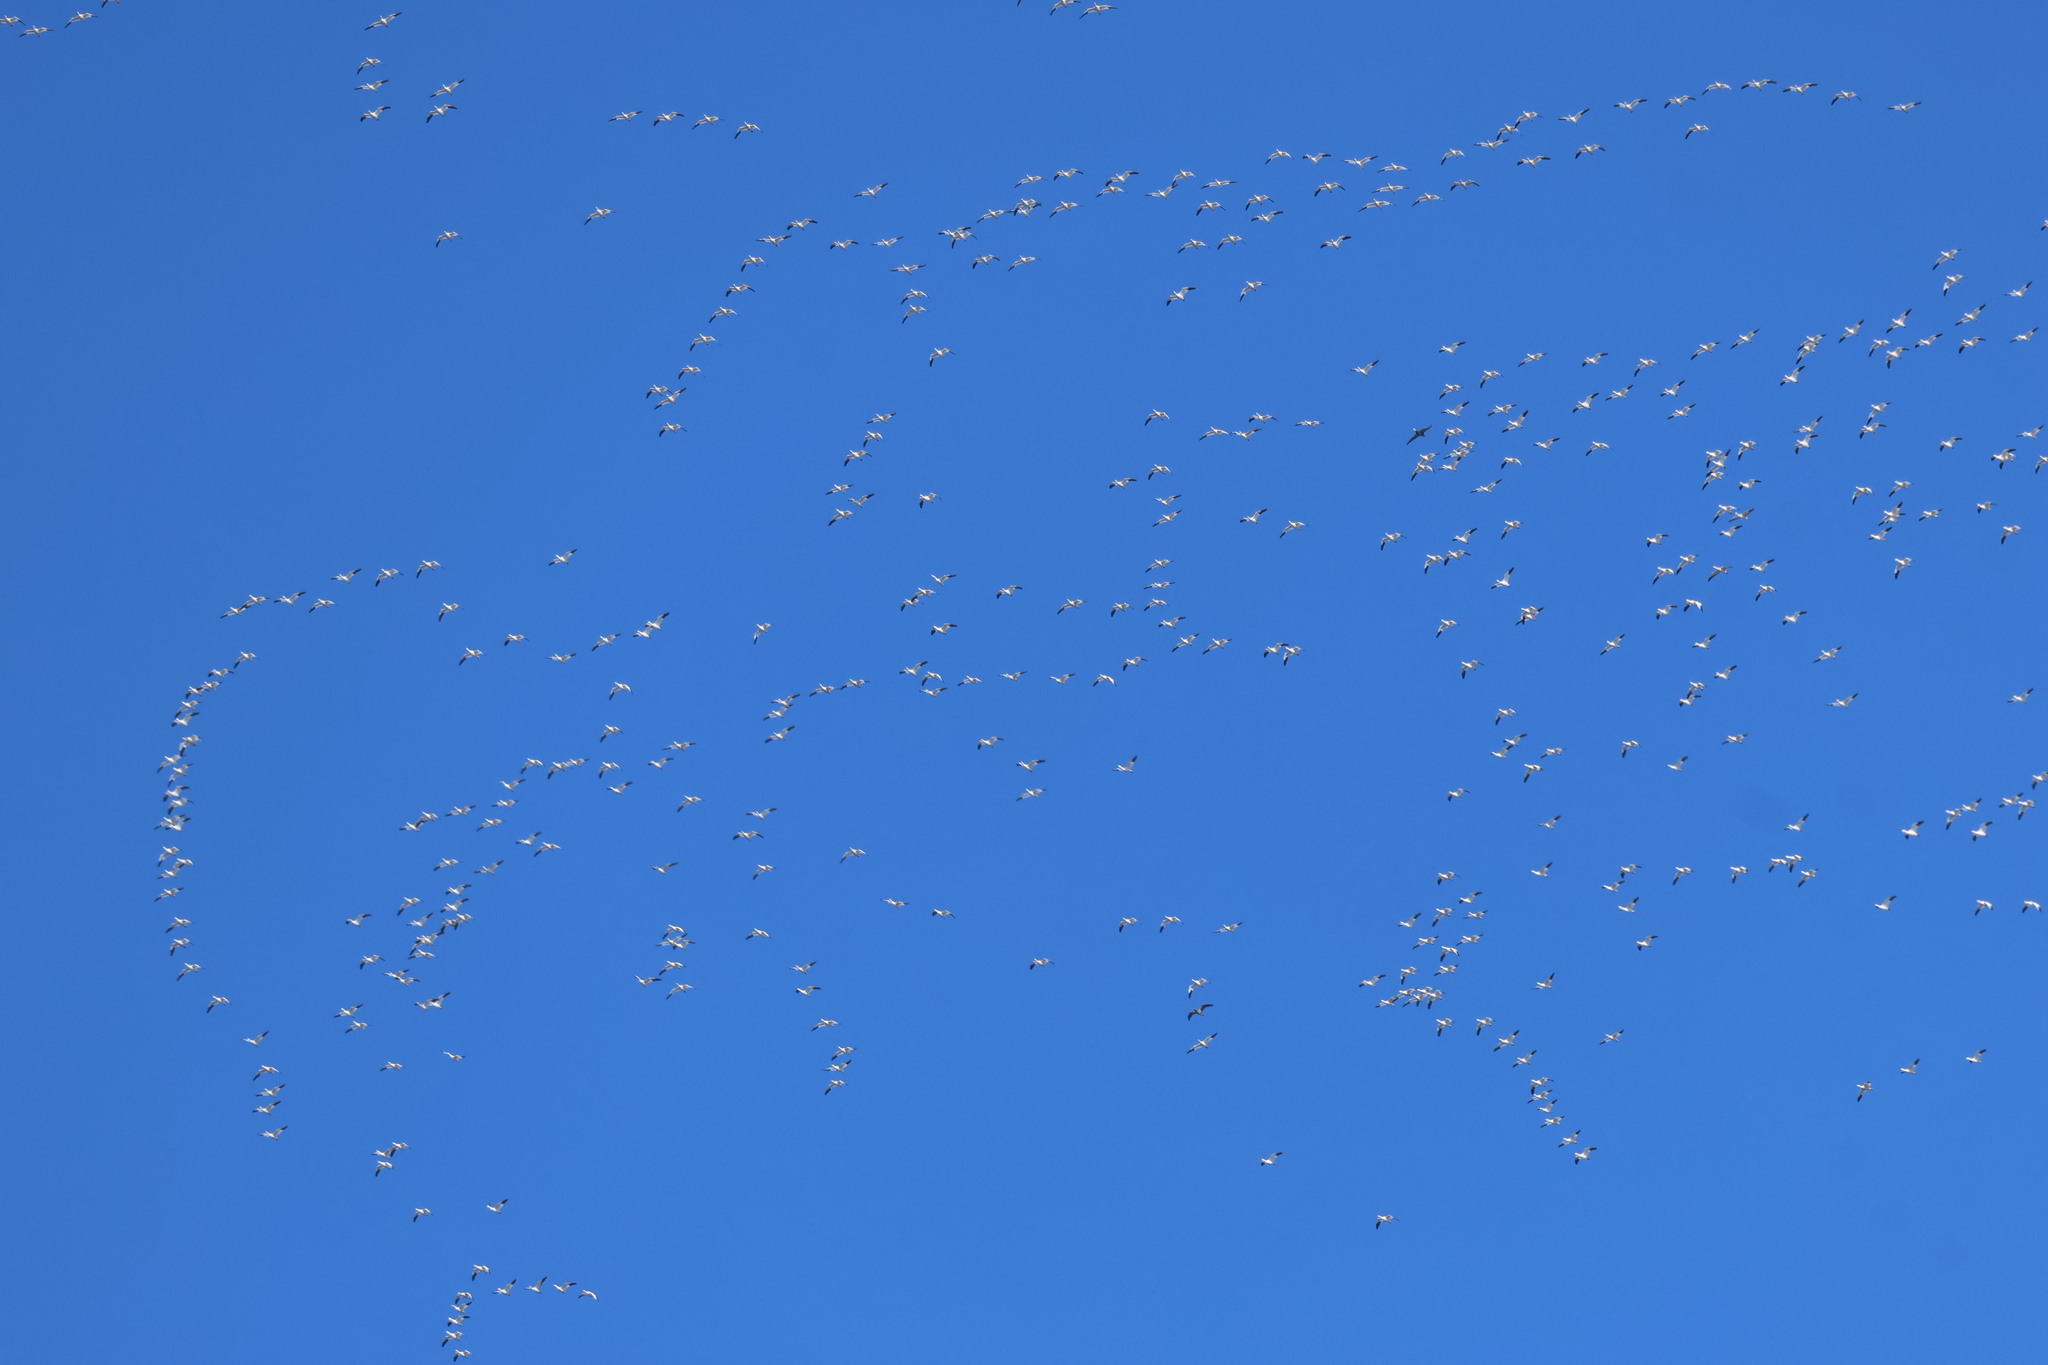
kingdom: Animalia
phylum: Chordata
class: Aves
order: Anseriformes
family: Anatidae
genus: Anser
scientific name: Anser caerulescens
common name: Snow goose
